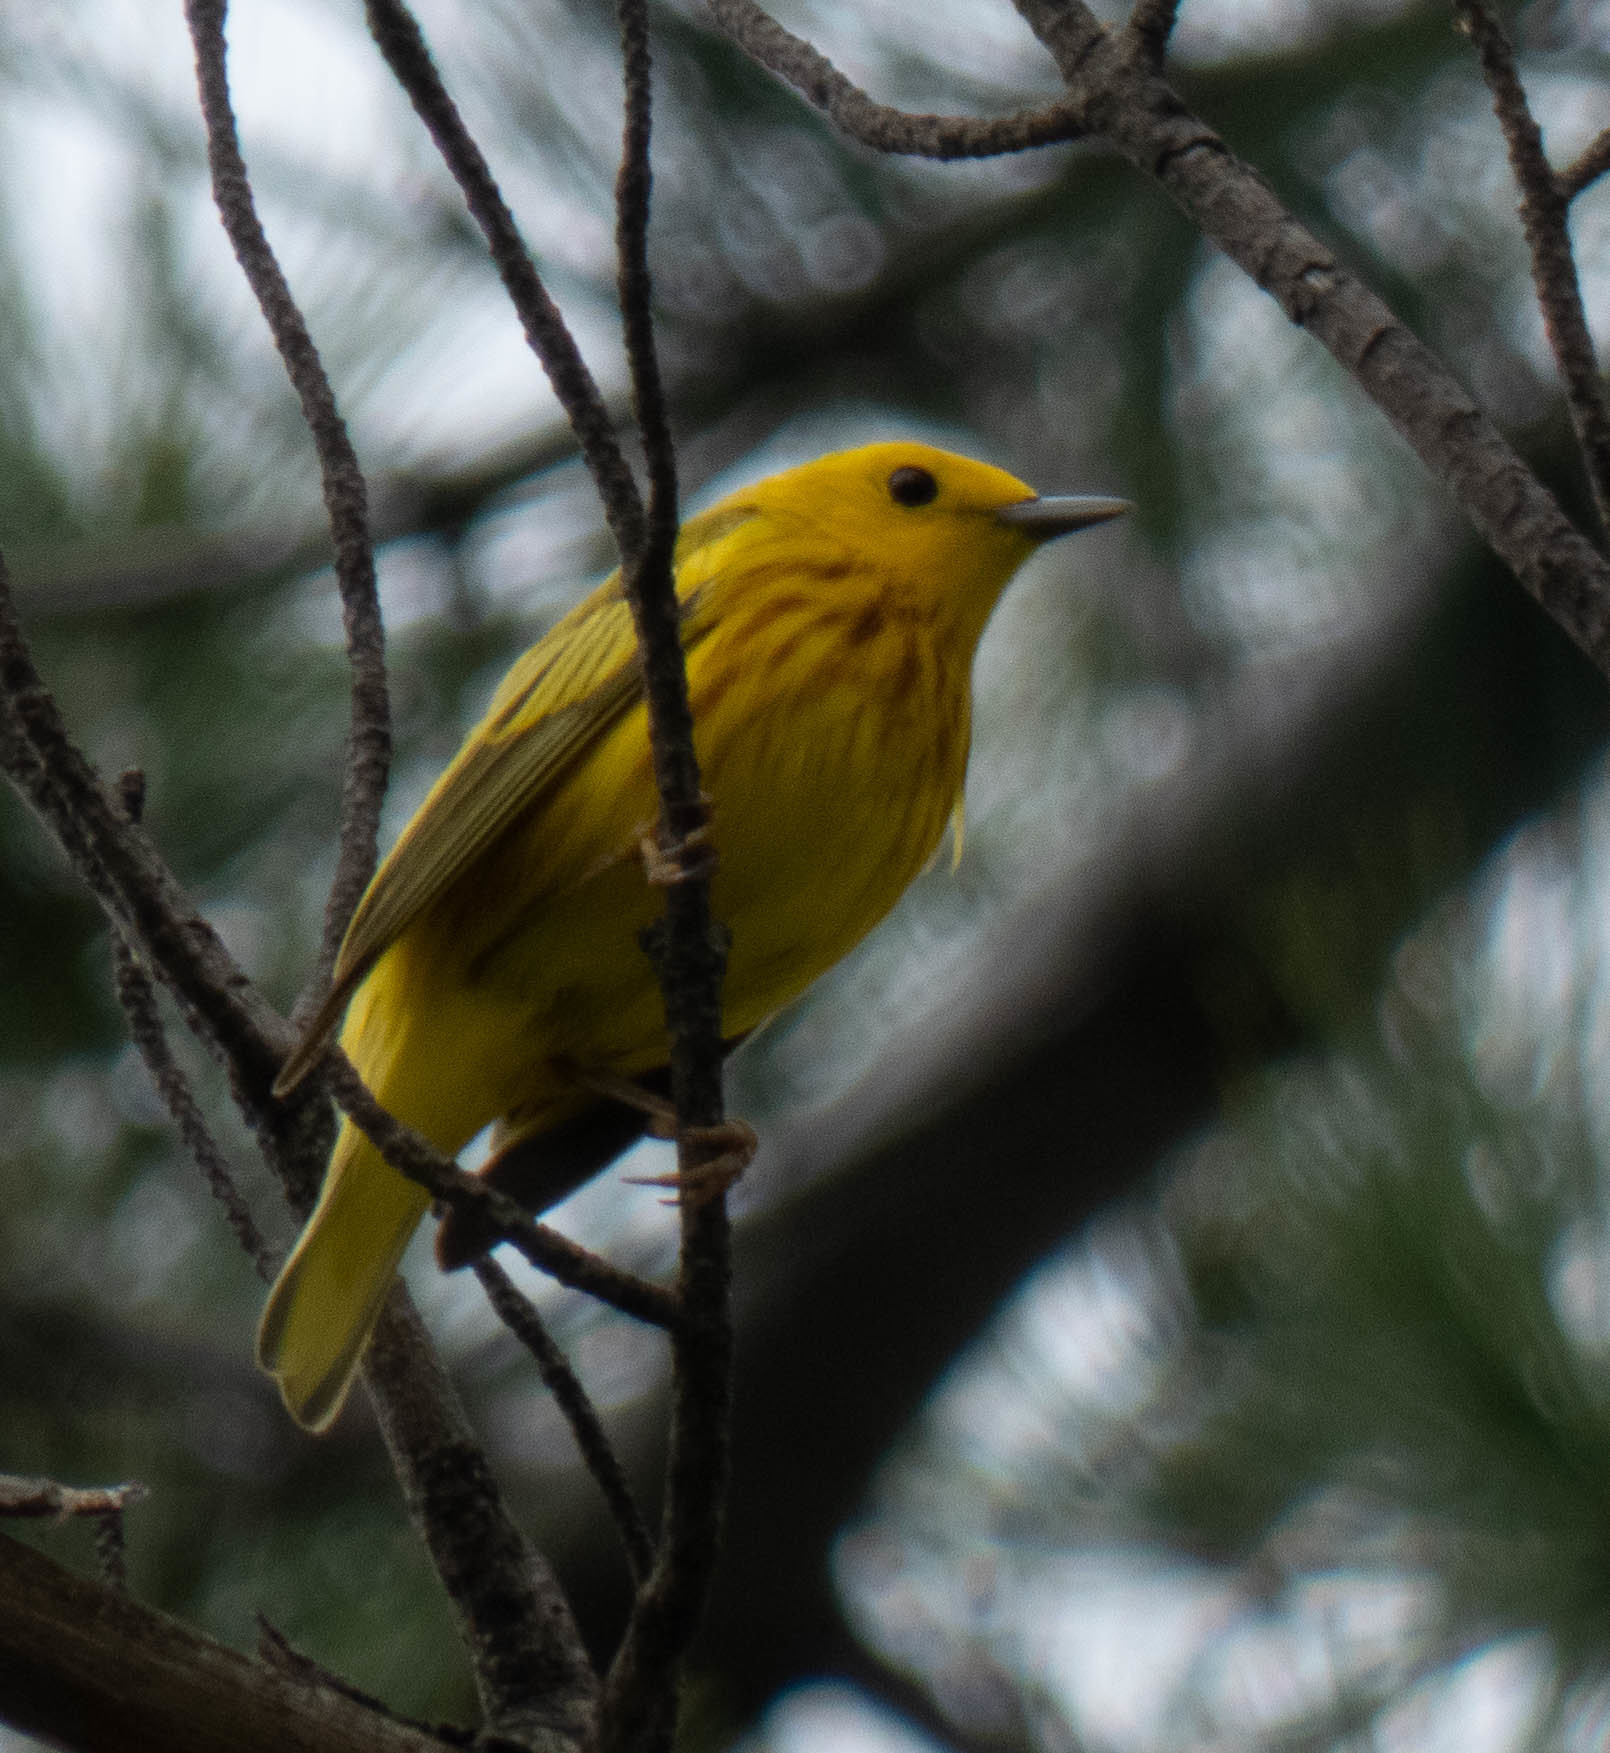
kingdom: Animalia
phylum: Chordata
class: Aves
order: Passeriformes
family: Parulidae
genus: Setophaga
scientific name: Setophaga petechia
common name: Yellow warbler
